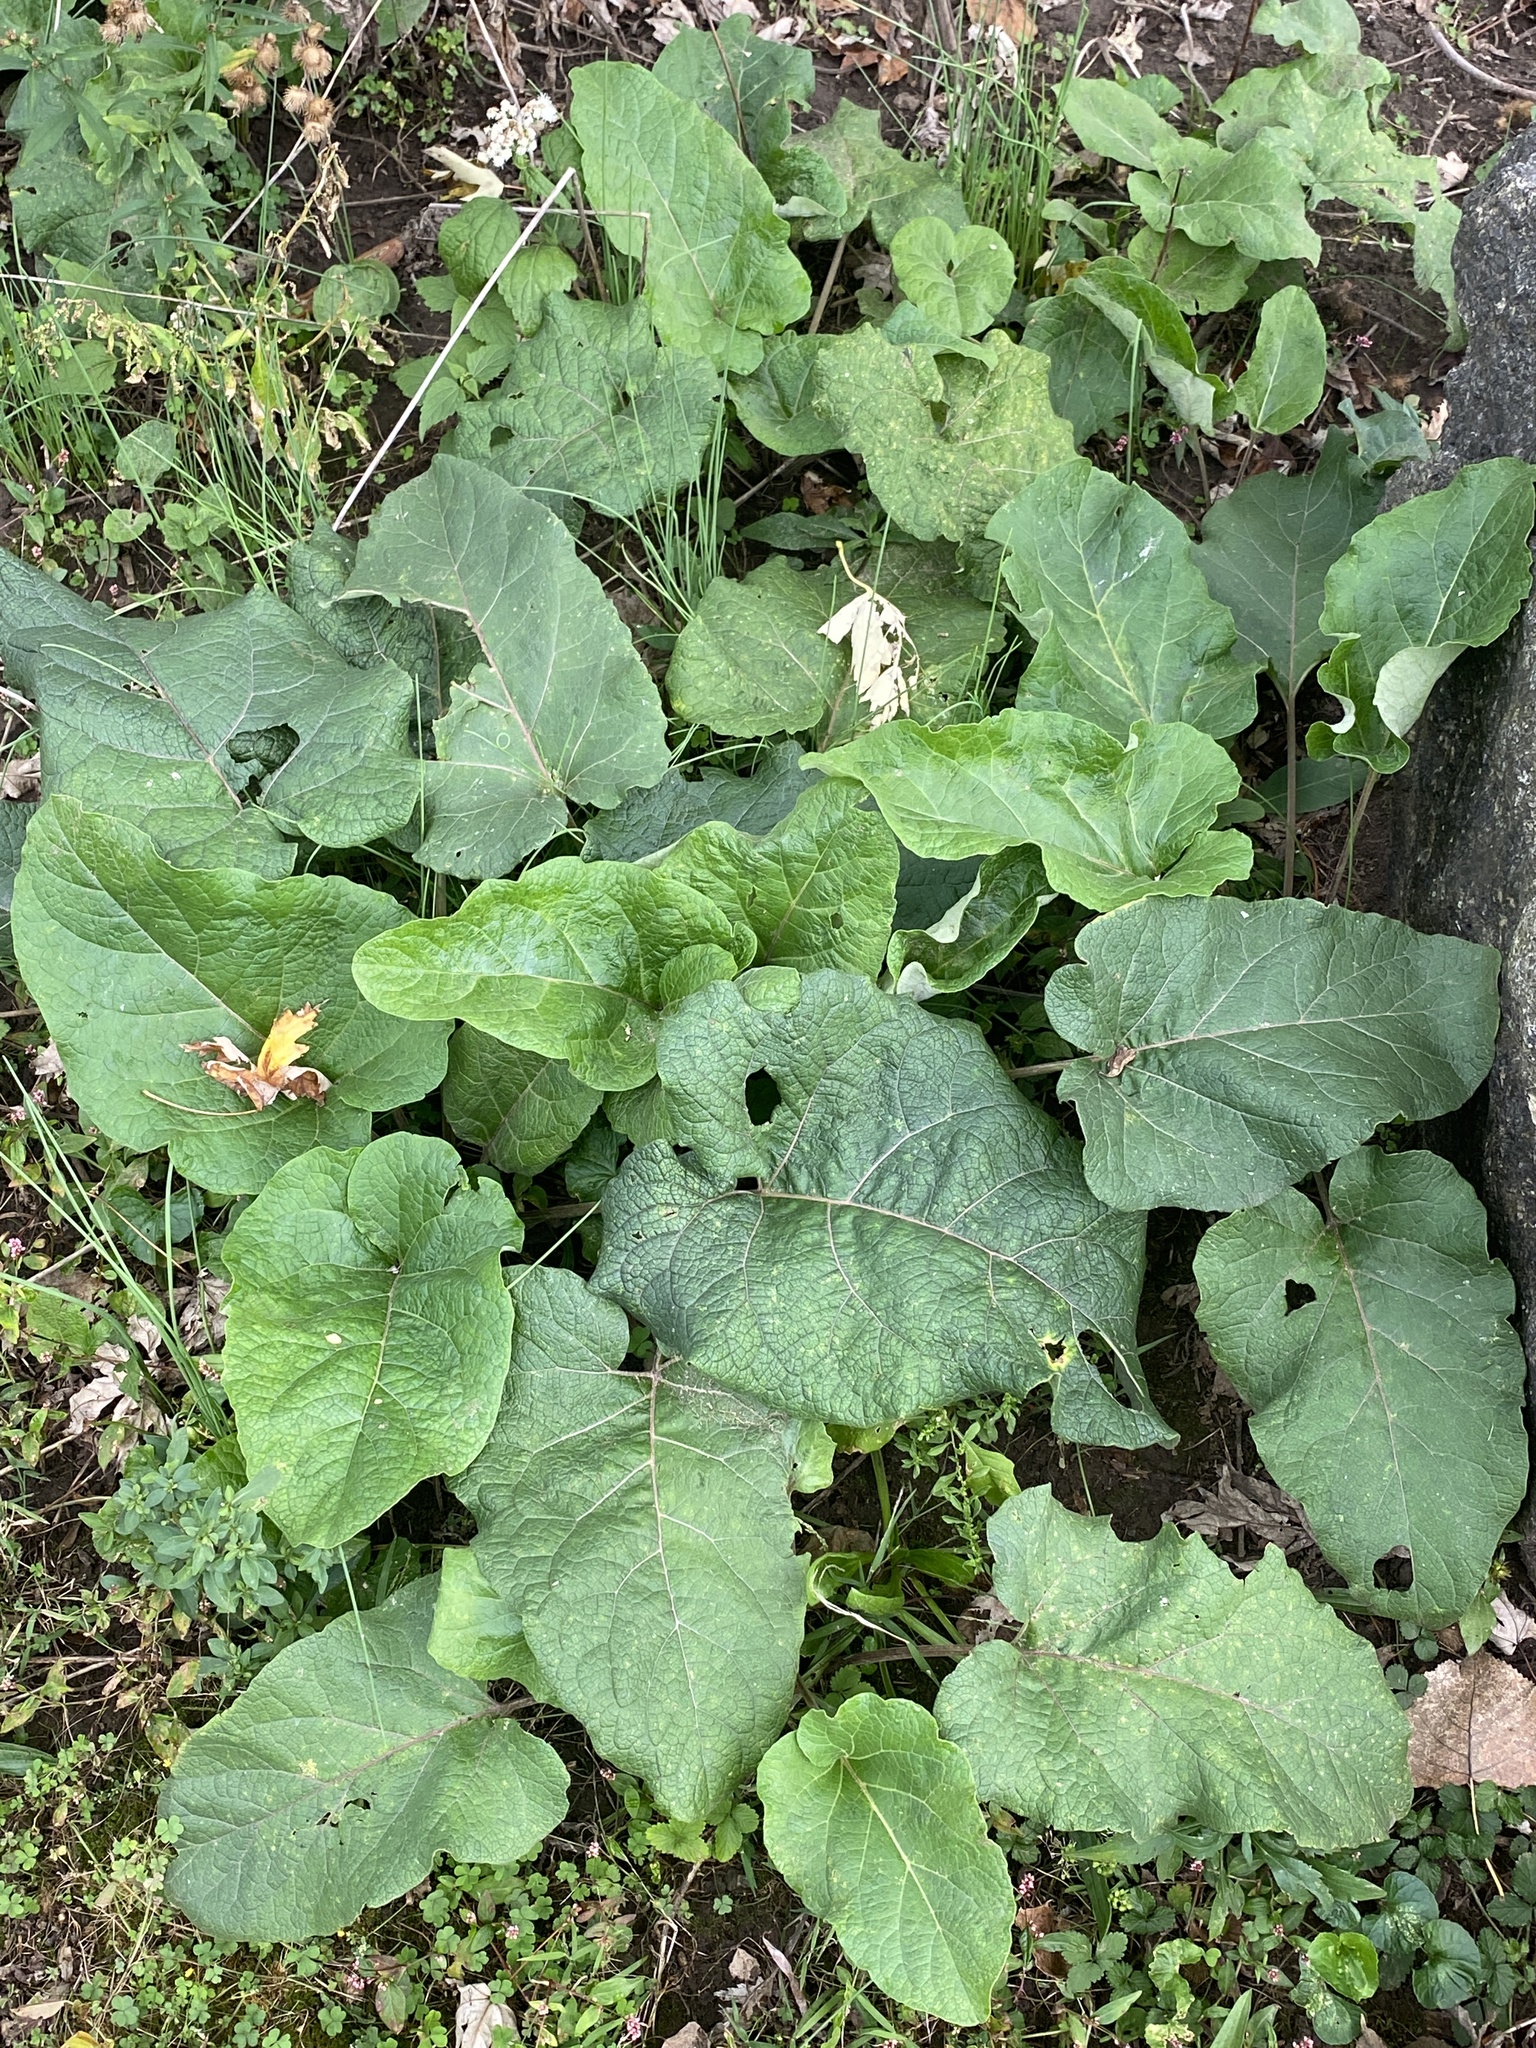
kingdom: Plantae
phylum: Tracheophyta
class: Magnoliopsida
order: Asterales
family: Asteraceae
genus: Arctium
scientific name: Arctium minus
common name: Lesser burdock
